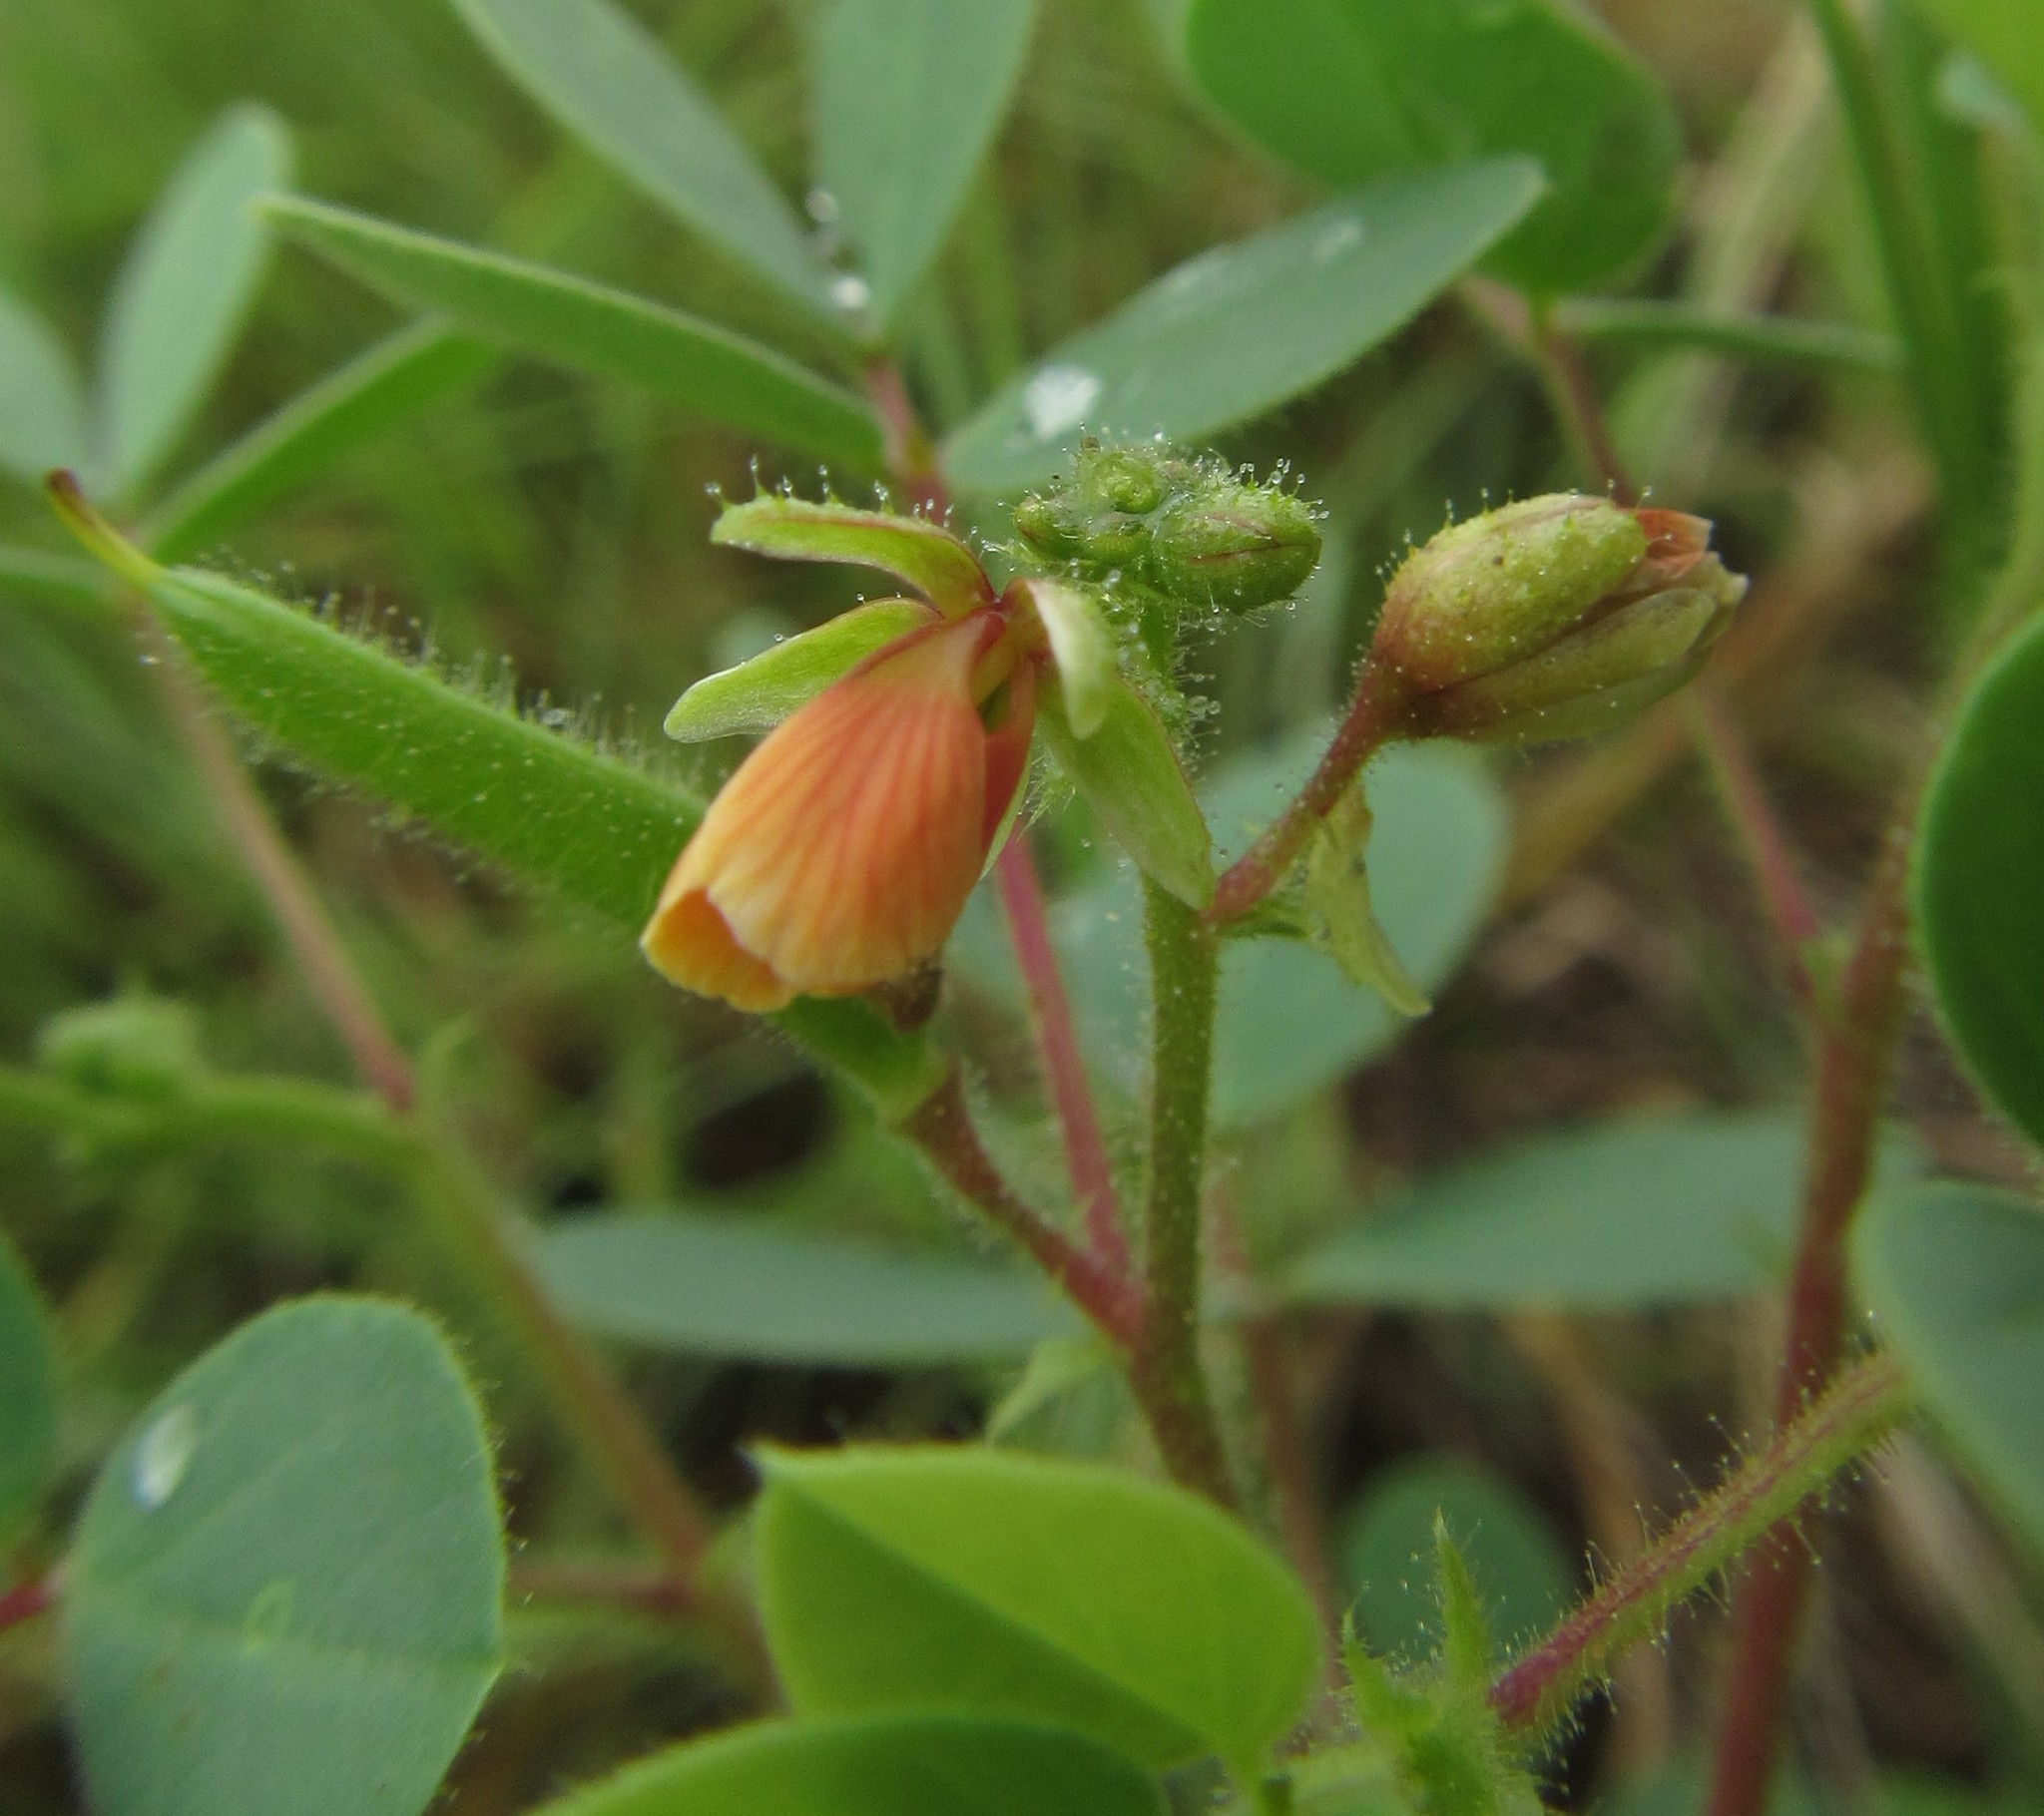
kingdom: Plantae
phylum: Tracheophyta
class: Magnoliopsida
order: Fabales
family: Fabaceae
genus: Chamaecrista
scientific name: Chamaecrista absus
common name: Tropical sensitive pea
